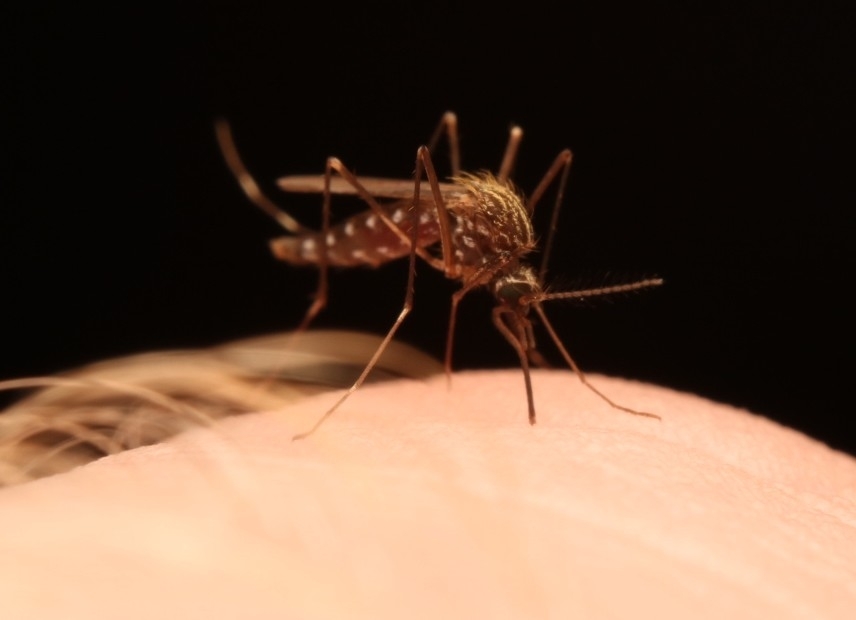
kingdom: Animalia
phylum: Arthropoda
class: Insecta
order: Diptera
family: Culicidae
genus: Aedes
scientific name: Aedes japonicus
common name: Asian bush mosquito
